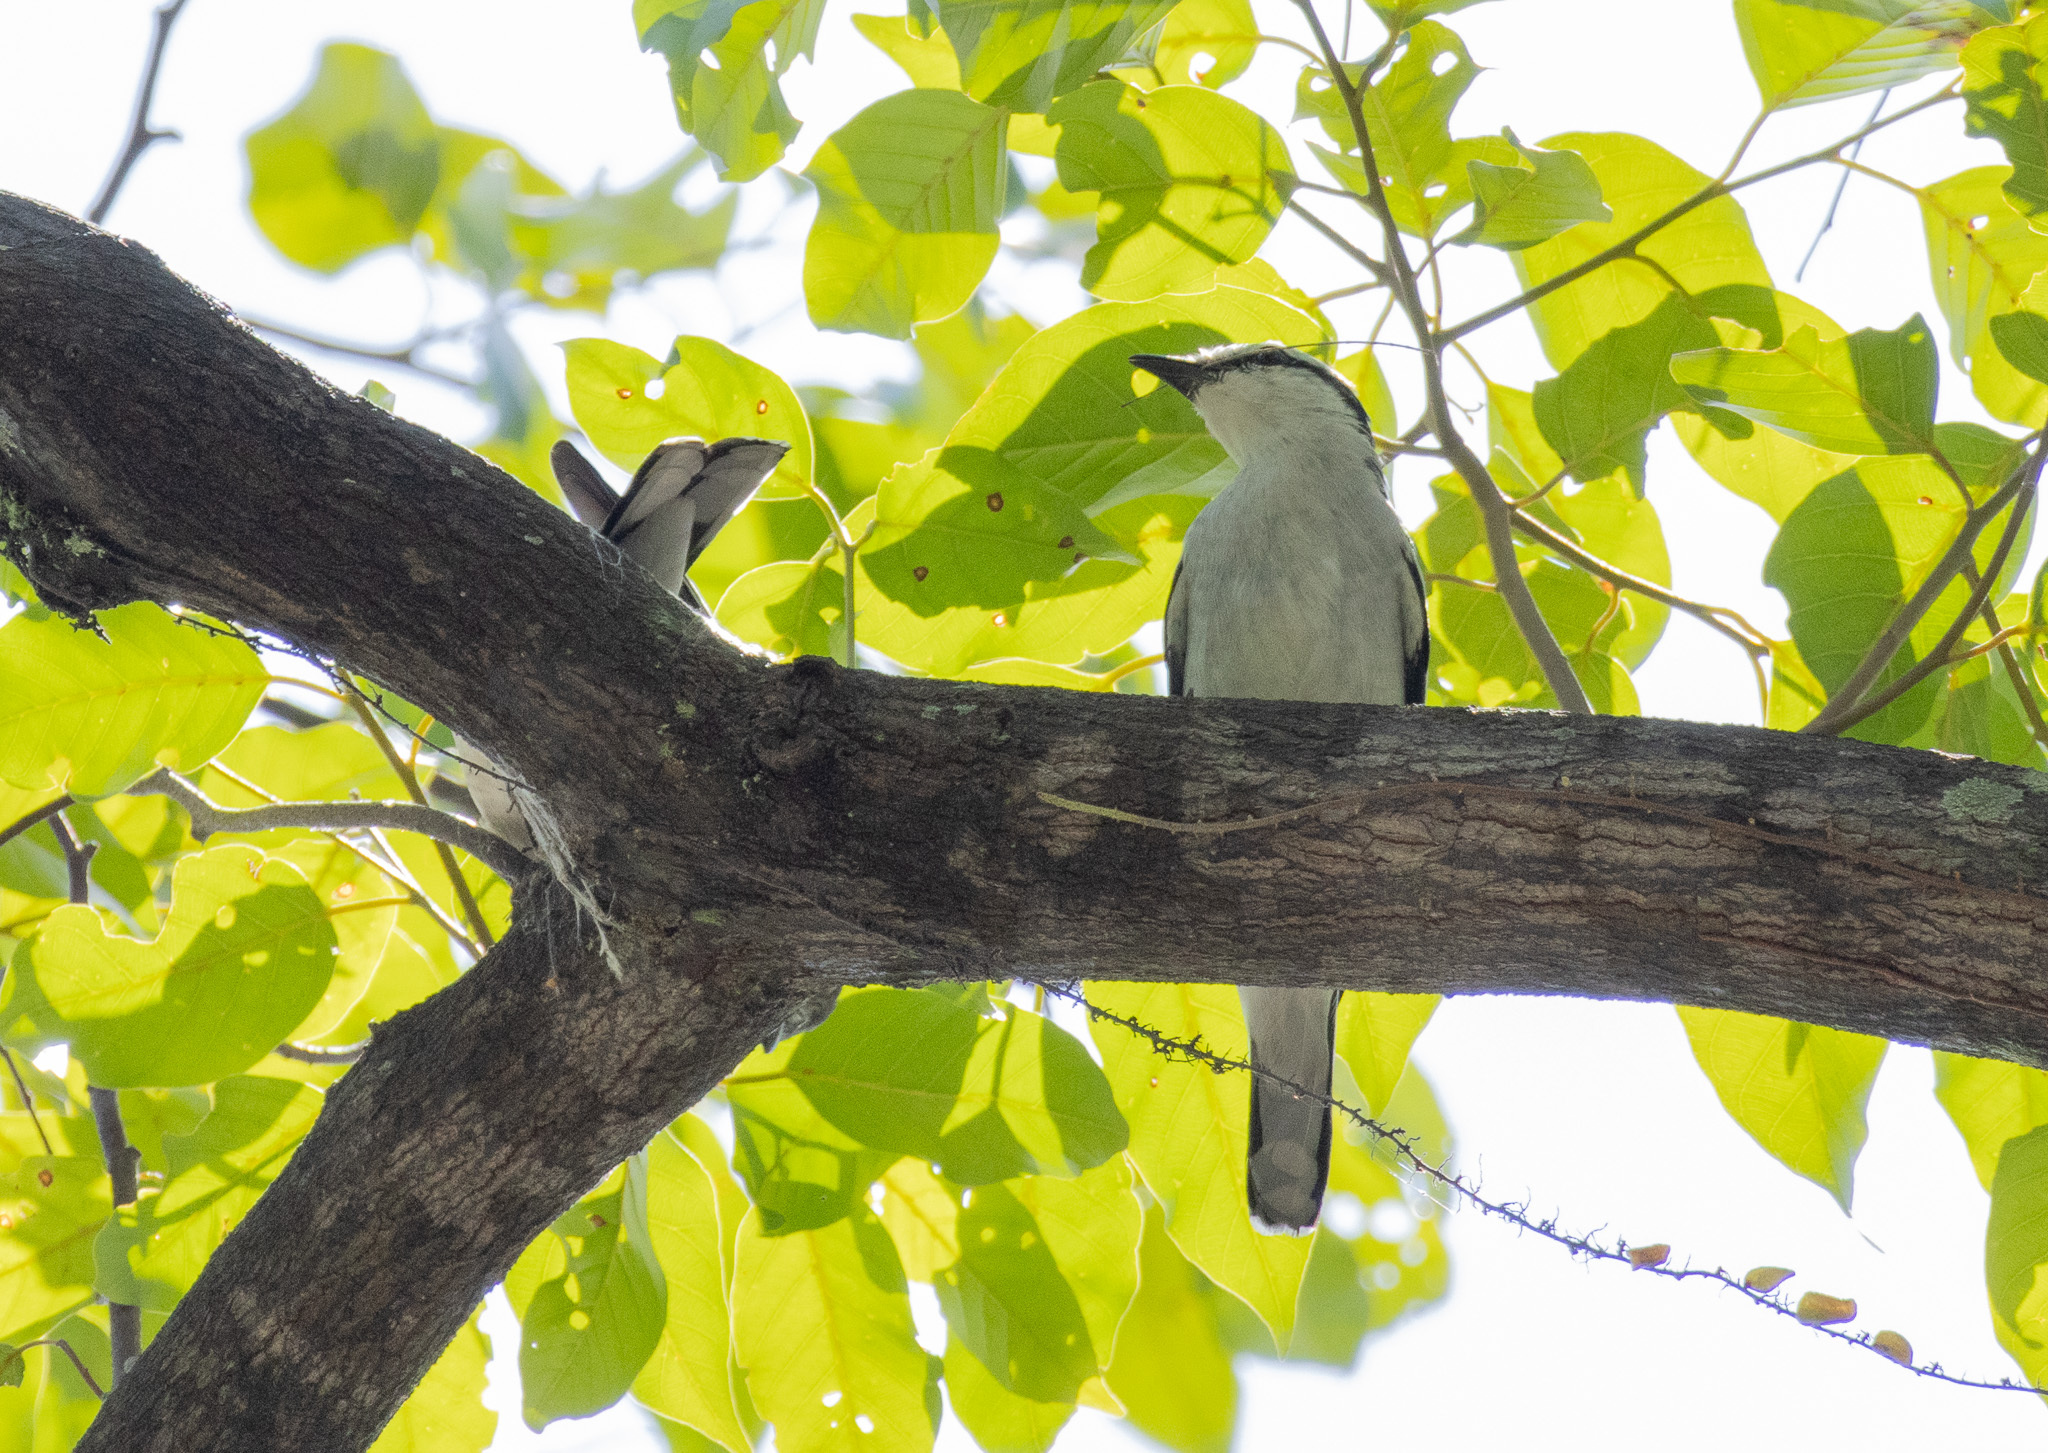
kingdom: Animalia
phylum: Chordata
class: Aves
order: Passeriformes
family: Campephagidae
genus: Lalage
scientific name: Lalage nigra
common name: Pied triller
